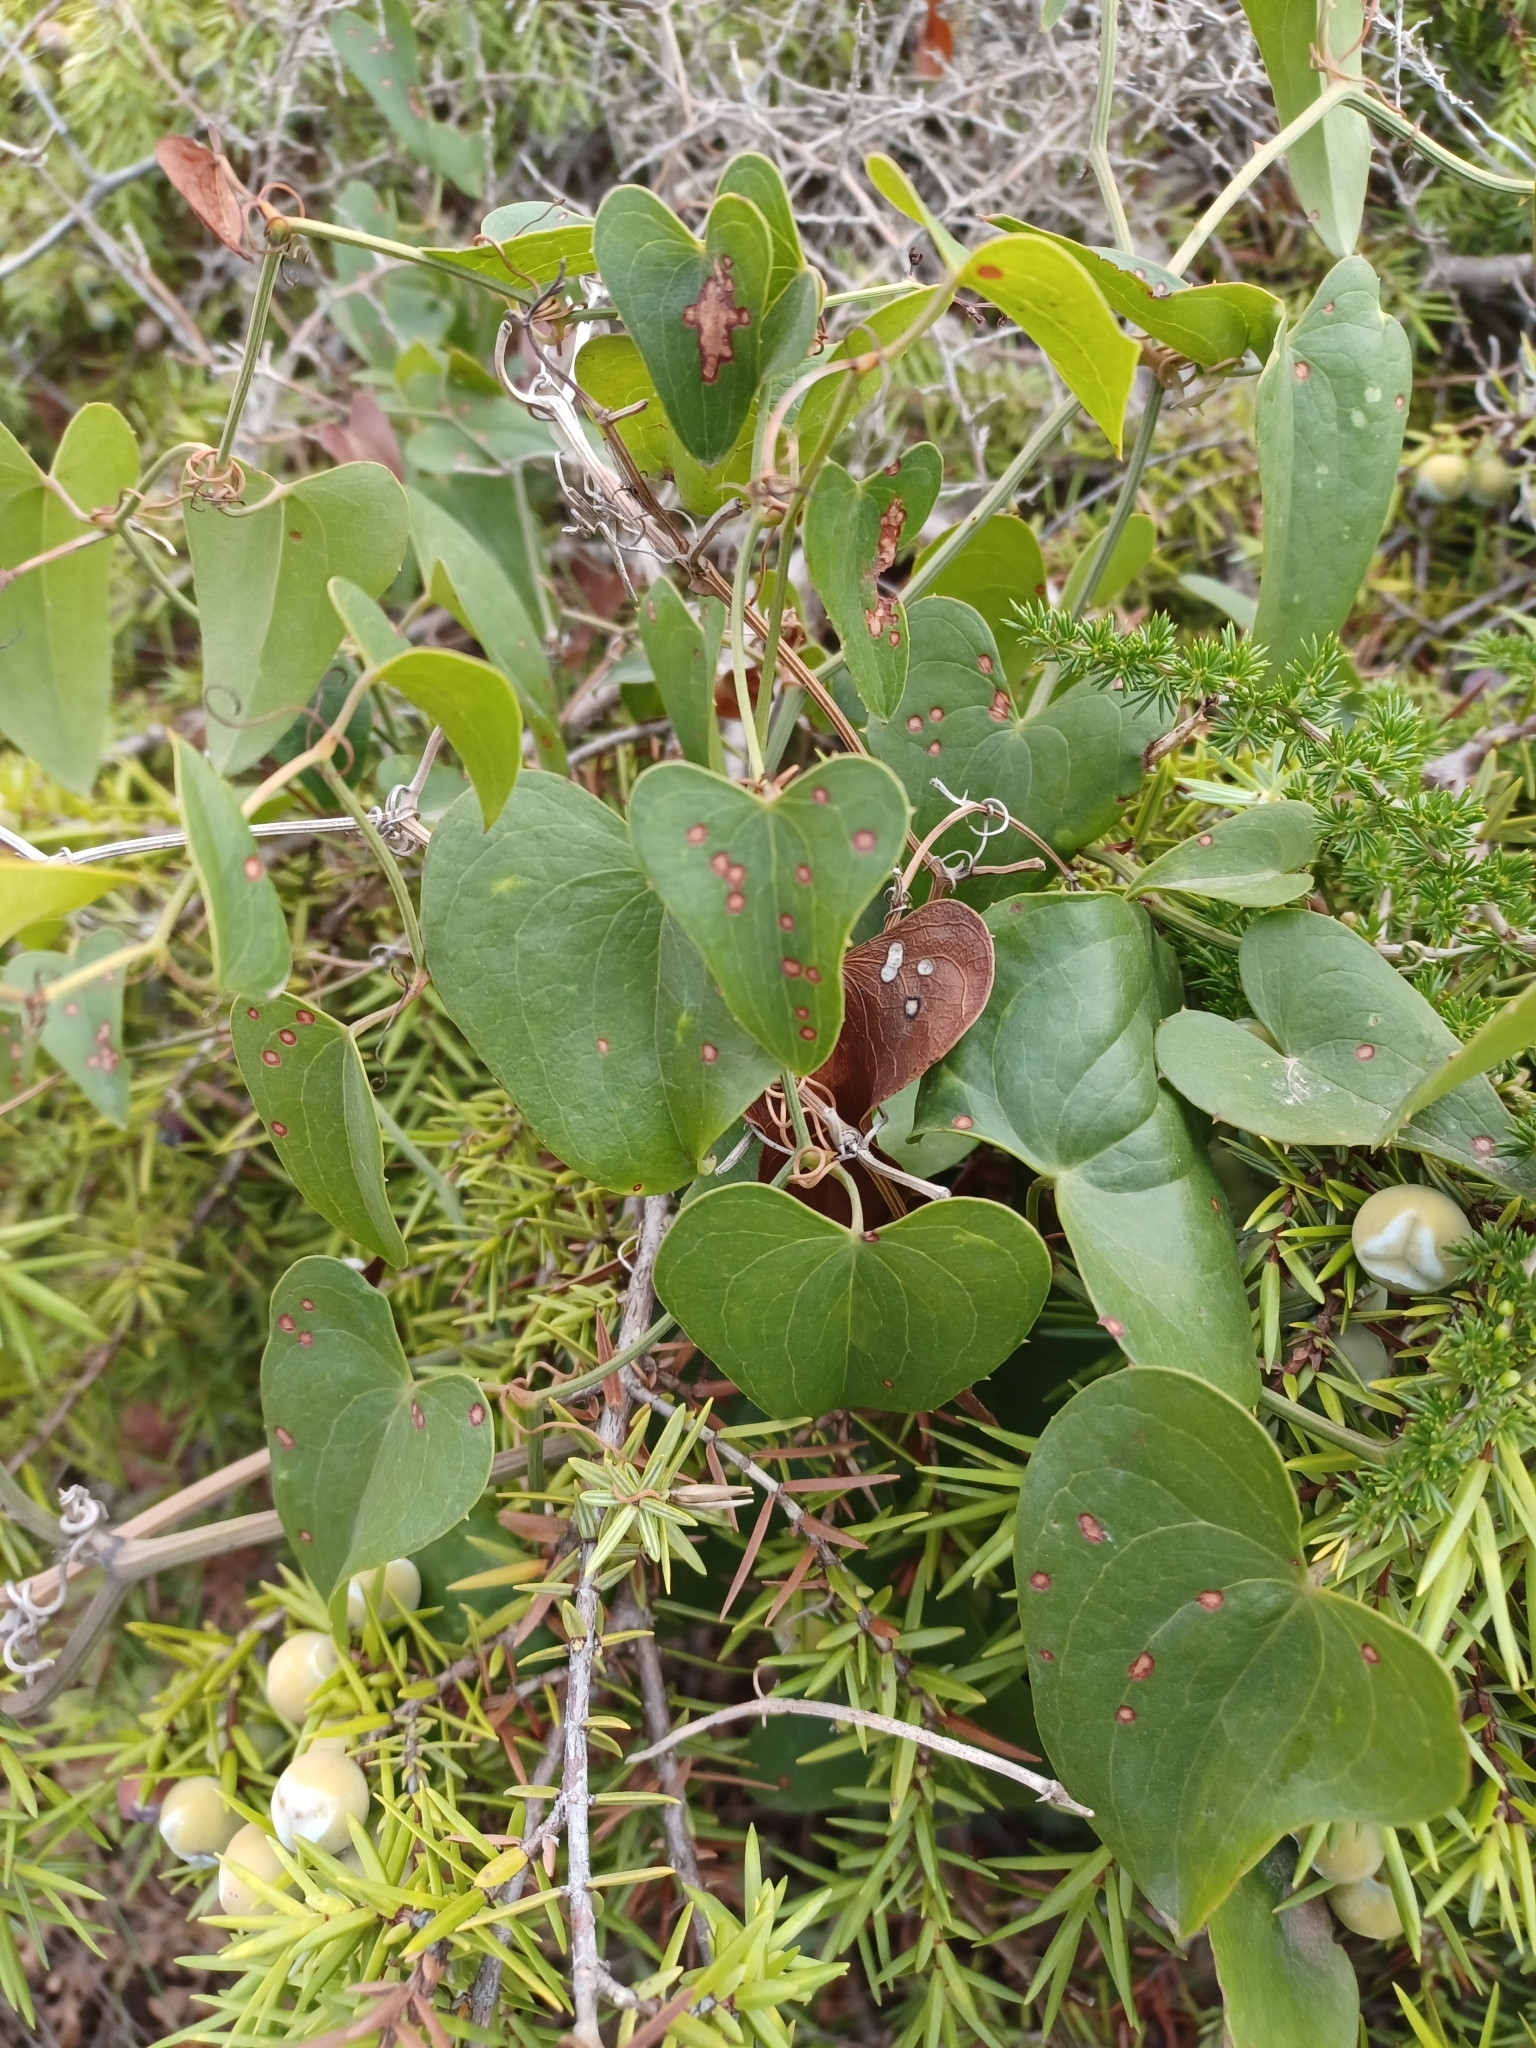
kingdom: Plantae
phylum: Tracheophyta
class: Liliopsida
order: Liliales
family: Smilacaceae
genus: Smilax
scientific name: Smilax aspera
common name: Common smilax
